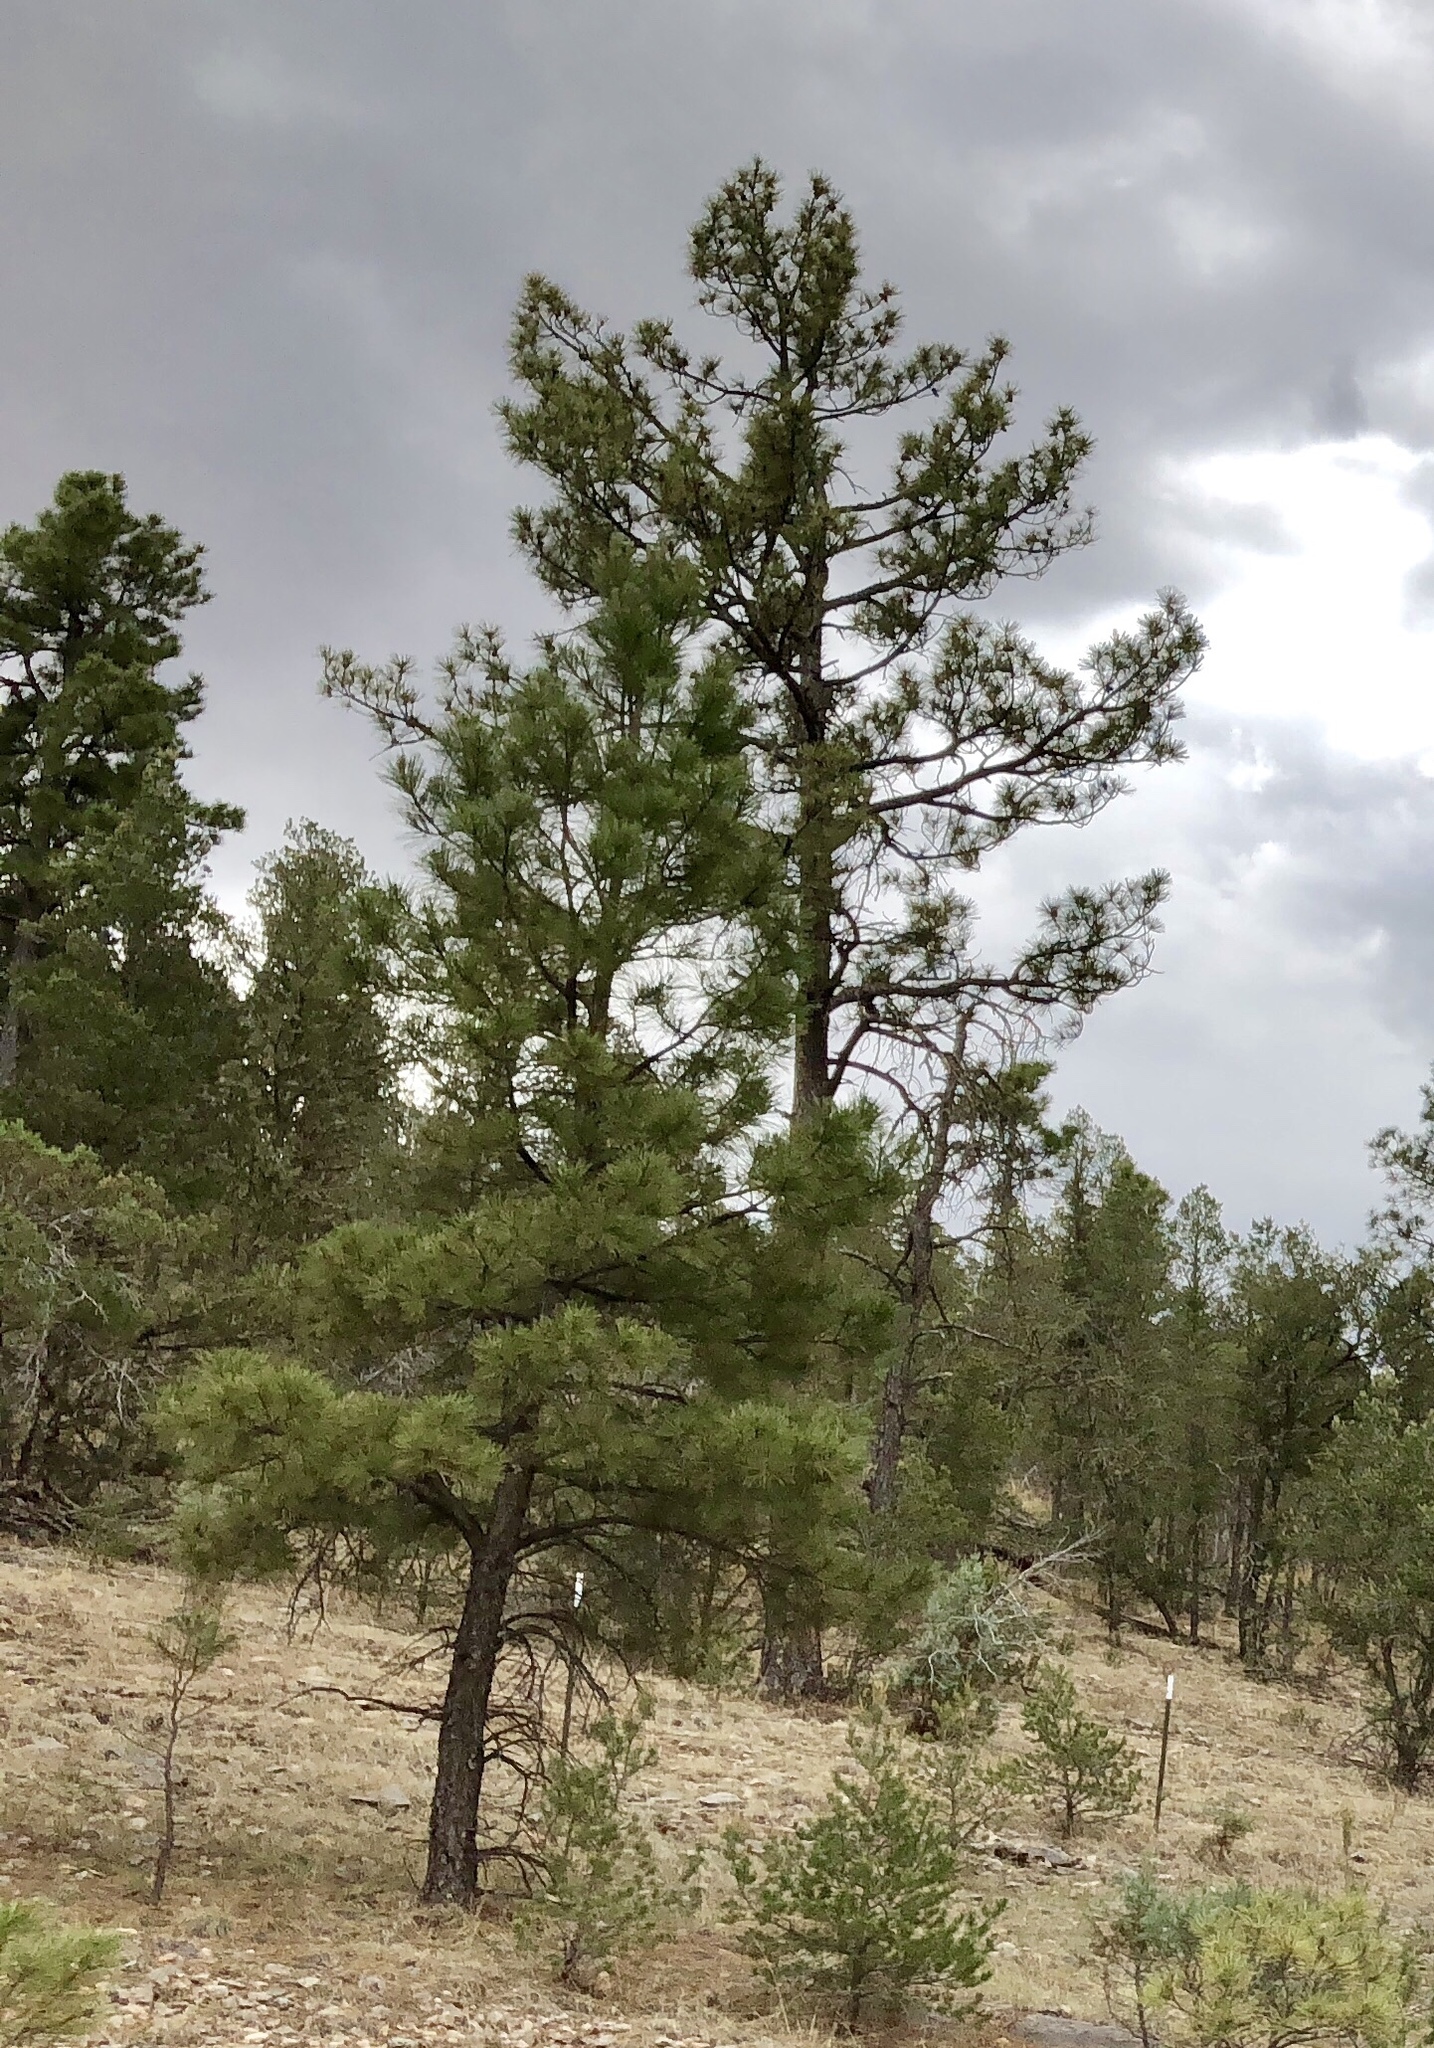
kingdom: Plantae
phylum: Tracheophyta
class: Pinopsida
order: Pinales
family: Pinaceae
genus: Pinus
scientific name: Pinus ponderosa
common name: Western yellow-pine
